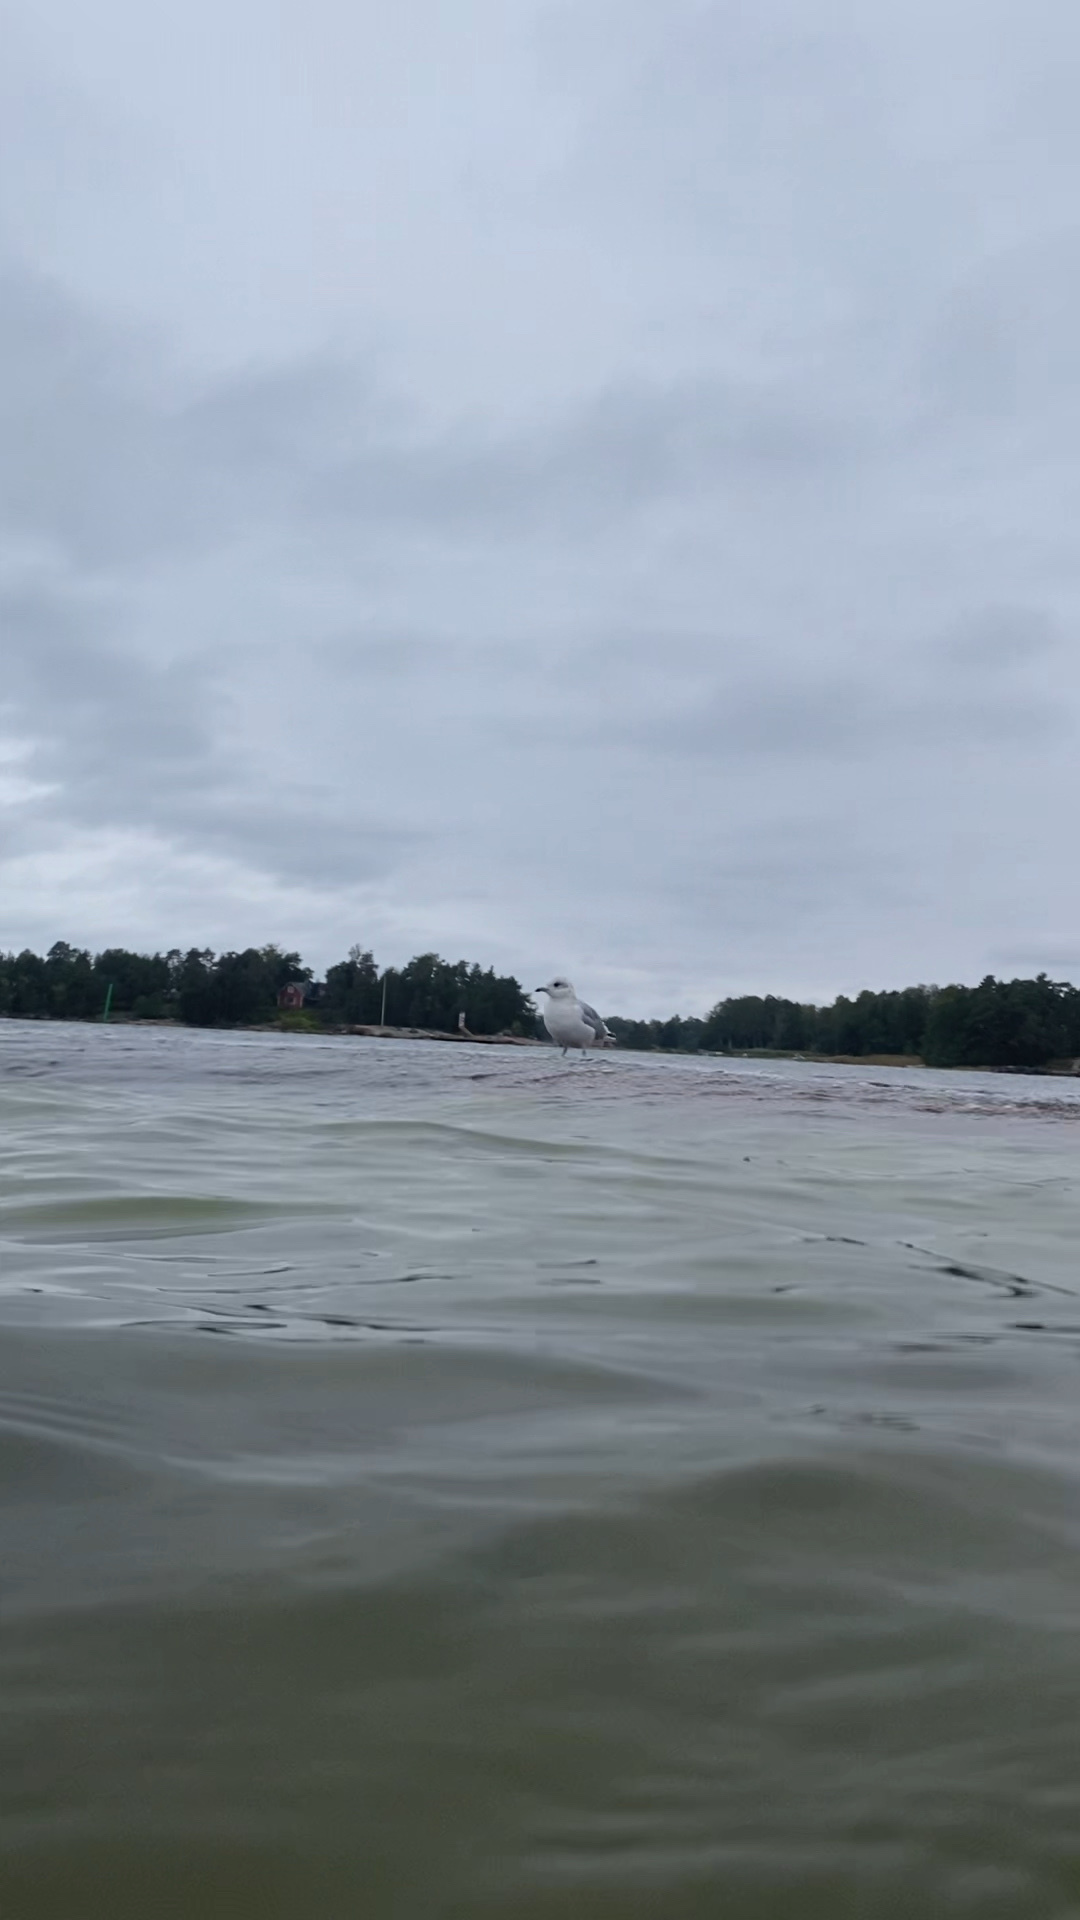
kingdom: Animalia
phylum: Chordata
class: Aves
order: Charadriiformes
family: Laridae
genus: Larus
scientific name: Larus canus
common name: Mew gull
